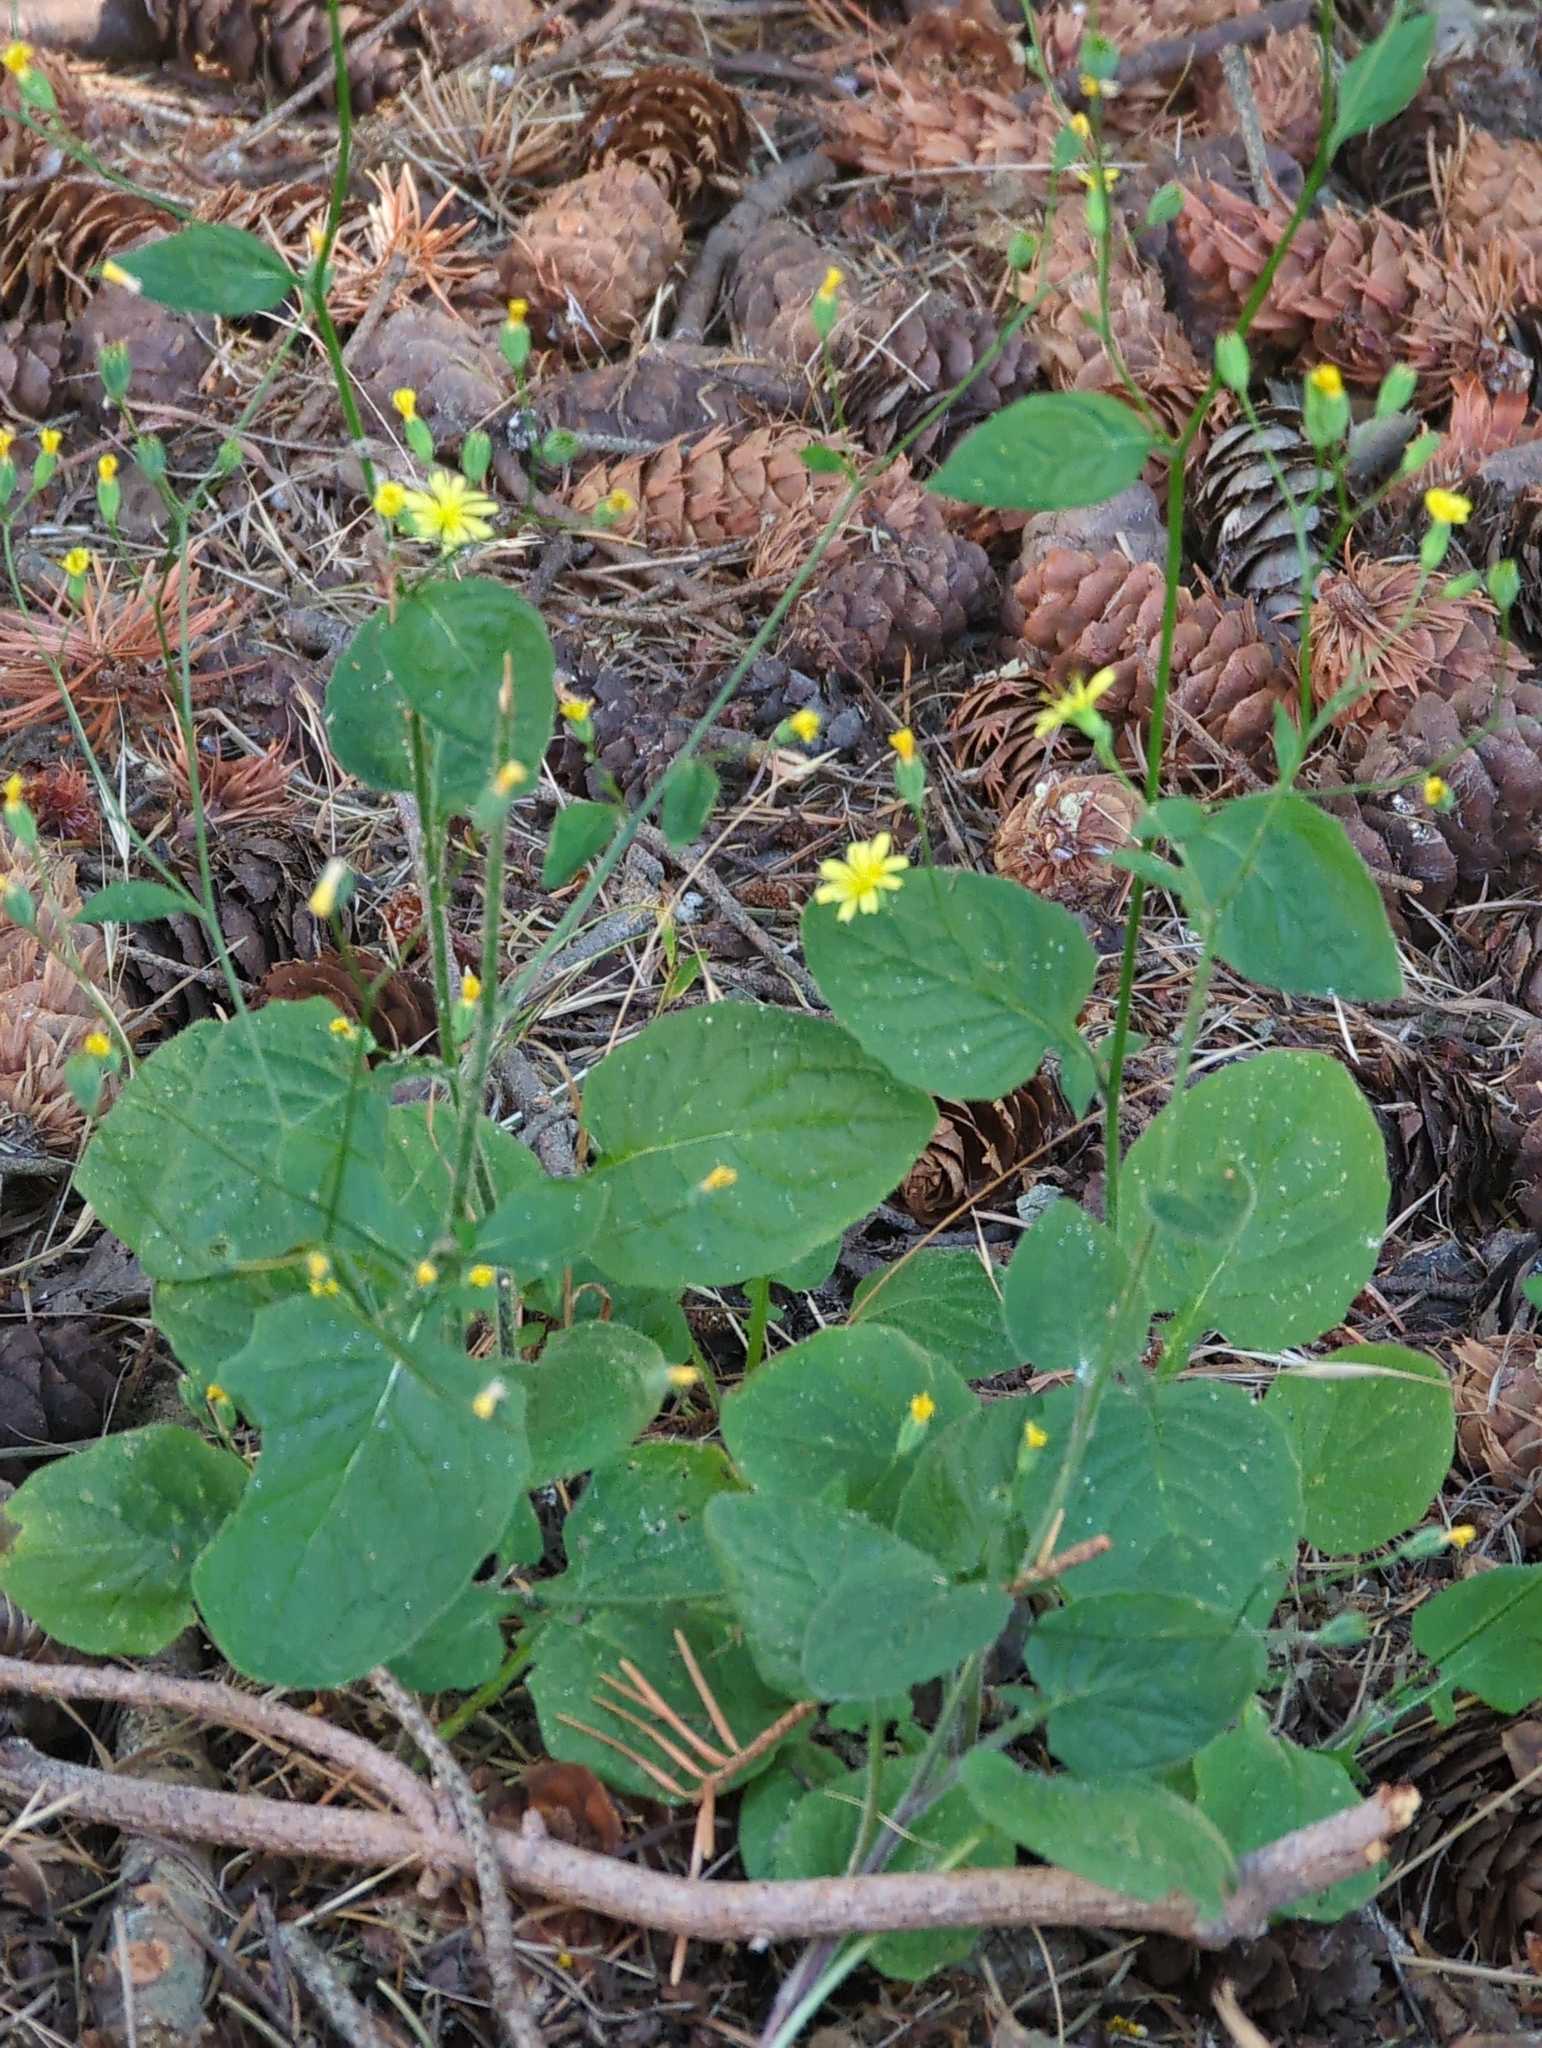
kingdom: Plantae
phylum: Tracheophyta
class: Magnoliopsida
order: Asterales
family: Asteraceae
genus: Lapsana
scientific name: Lapsana communis
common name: Nipplewort
